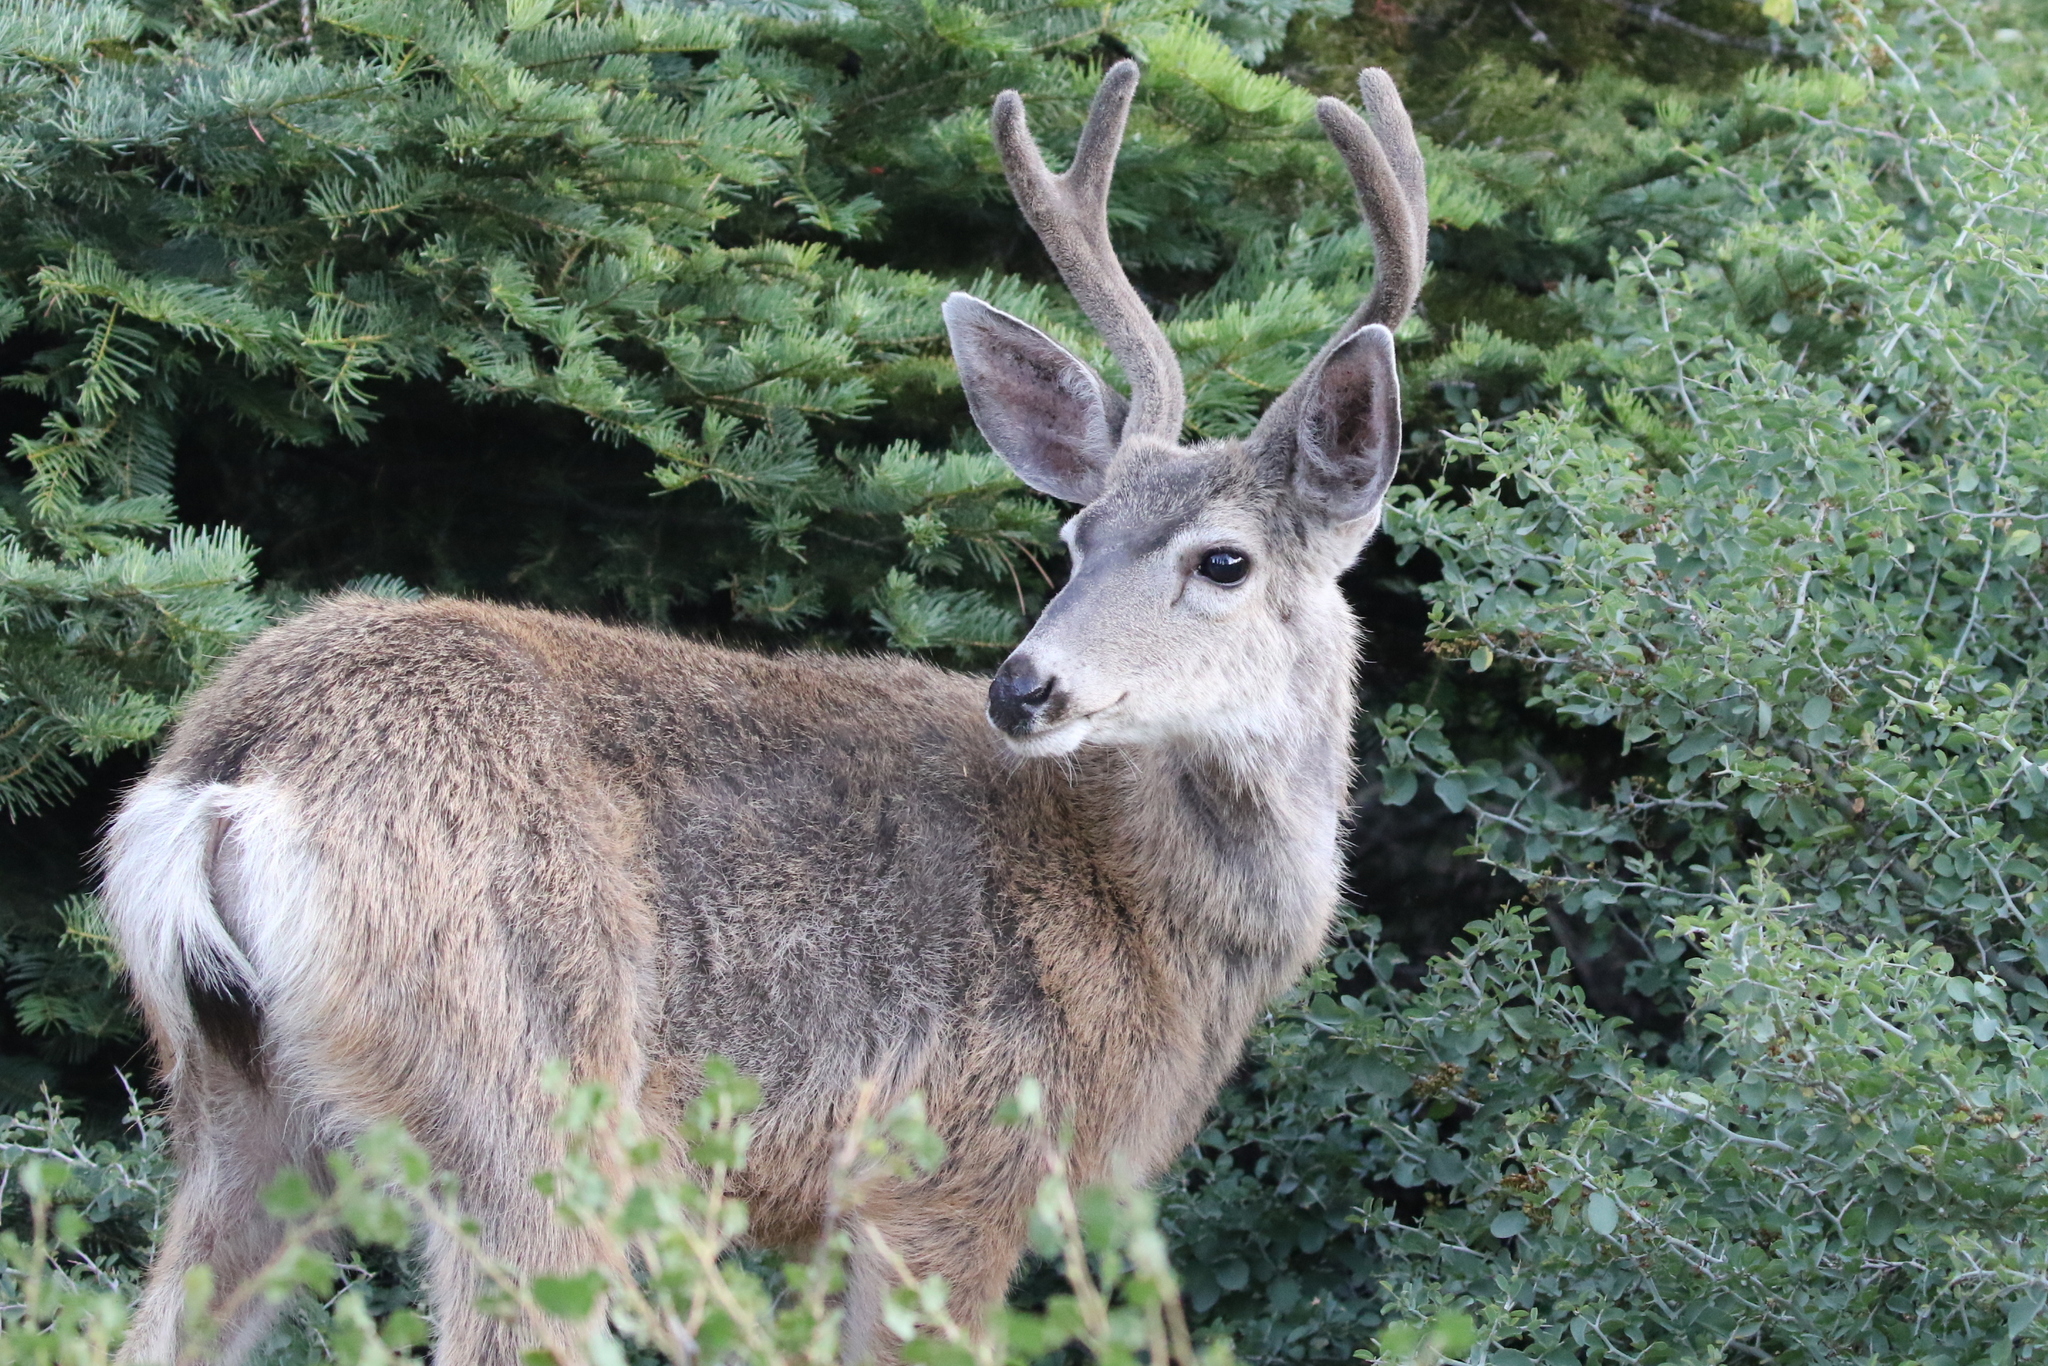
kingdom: Animalia
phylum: Chordata
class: Mammalia
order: Artiodactyla
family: Cervidae
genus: Odocoileus
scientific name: Odocoileus hemionus
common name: Mule deer
